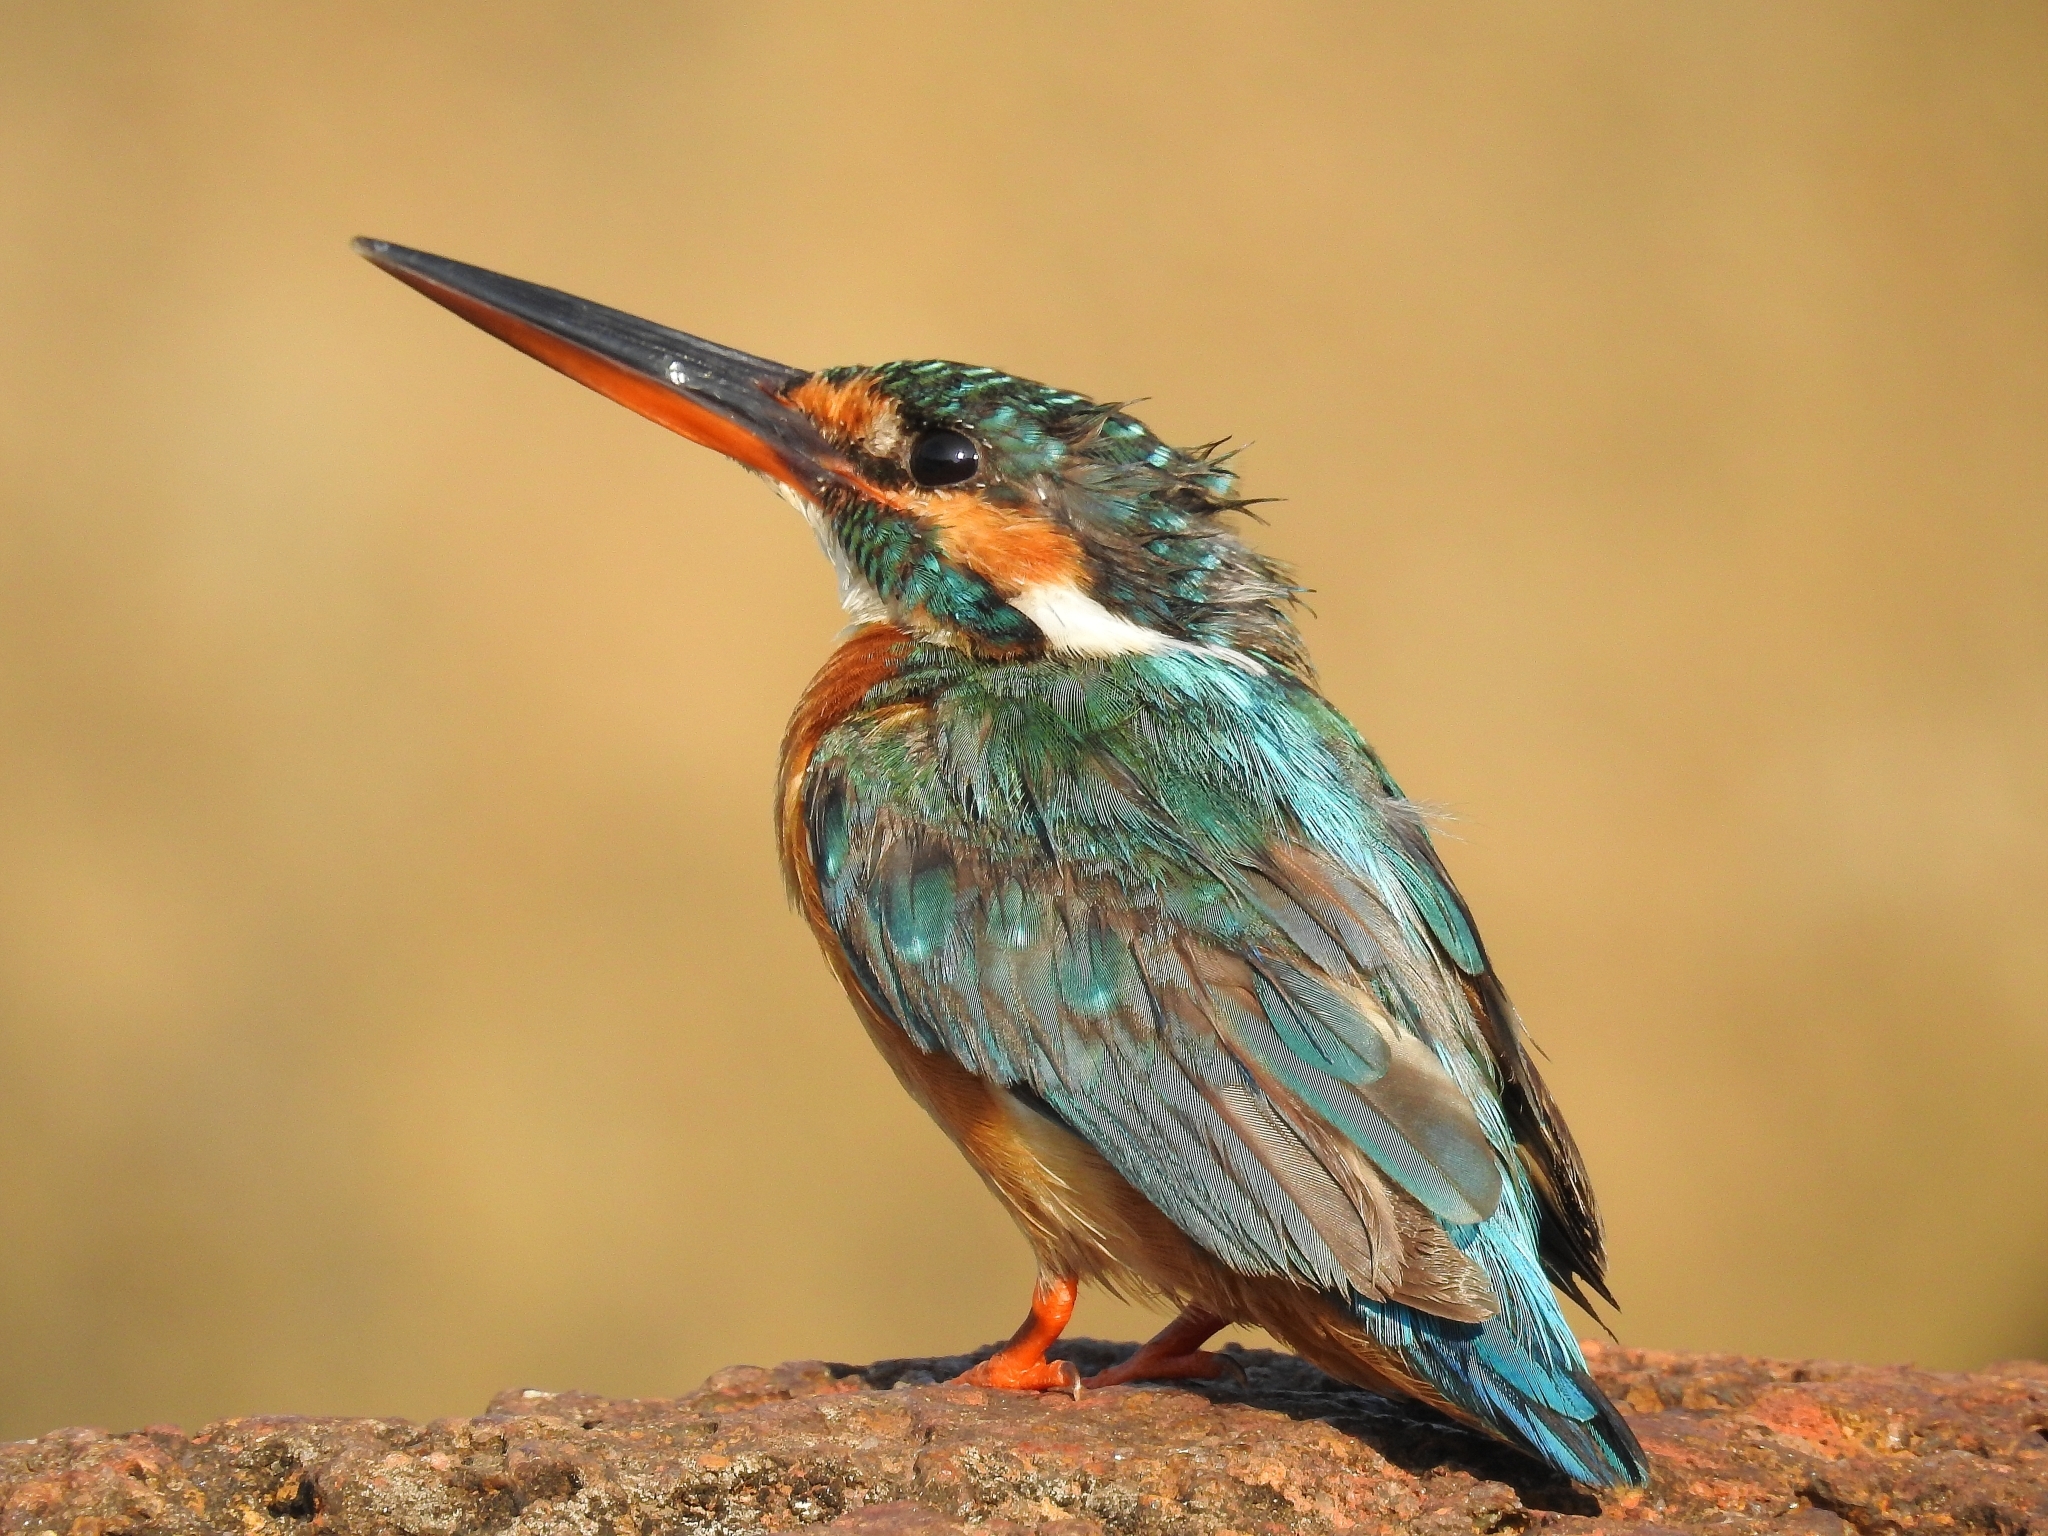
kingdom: Animalia
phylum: Chordata
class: Aves
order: Coraciiformes
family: Alcedinidae
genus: Alcedo
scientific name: Alcedo atthis
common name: Common kingfisher
